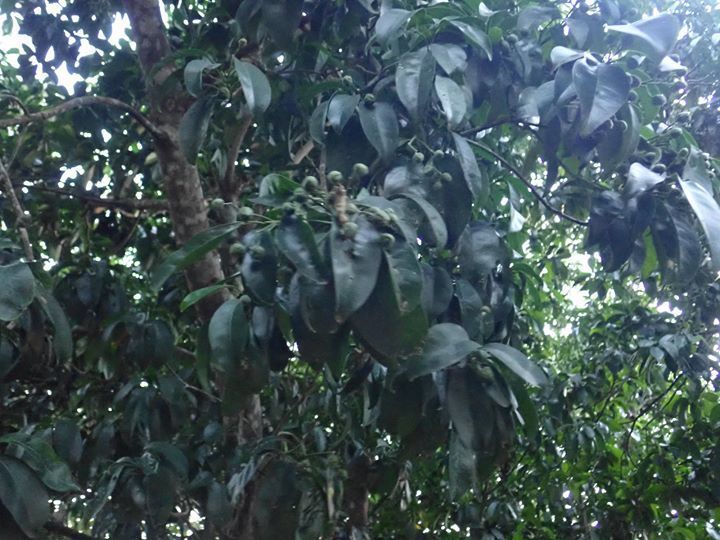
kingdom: Plantae
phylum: Tracheophyta
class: Magnoliopsida
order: Sapindales
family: Rutaceae
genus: Acronychia
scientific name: Acronychia pedunculata
